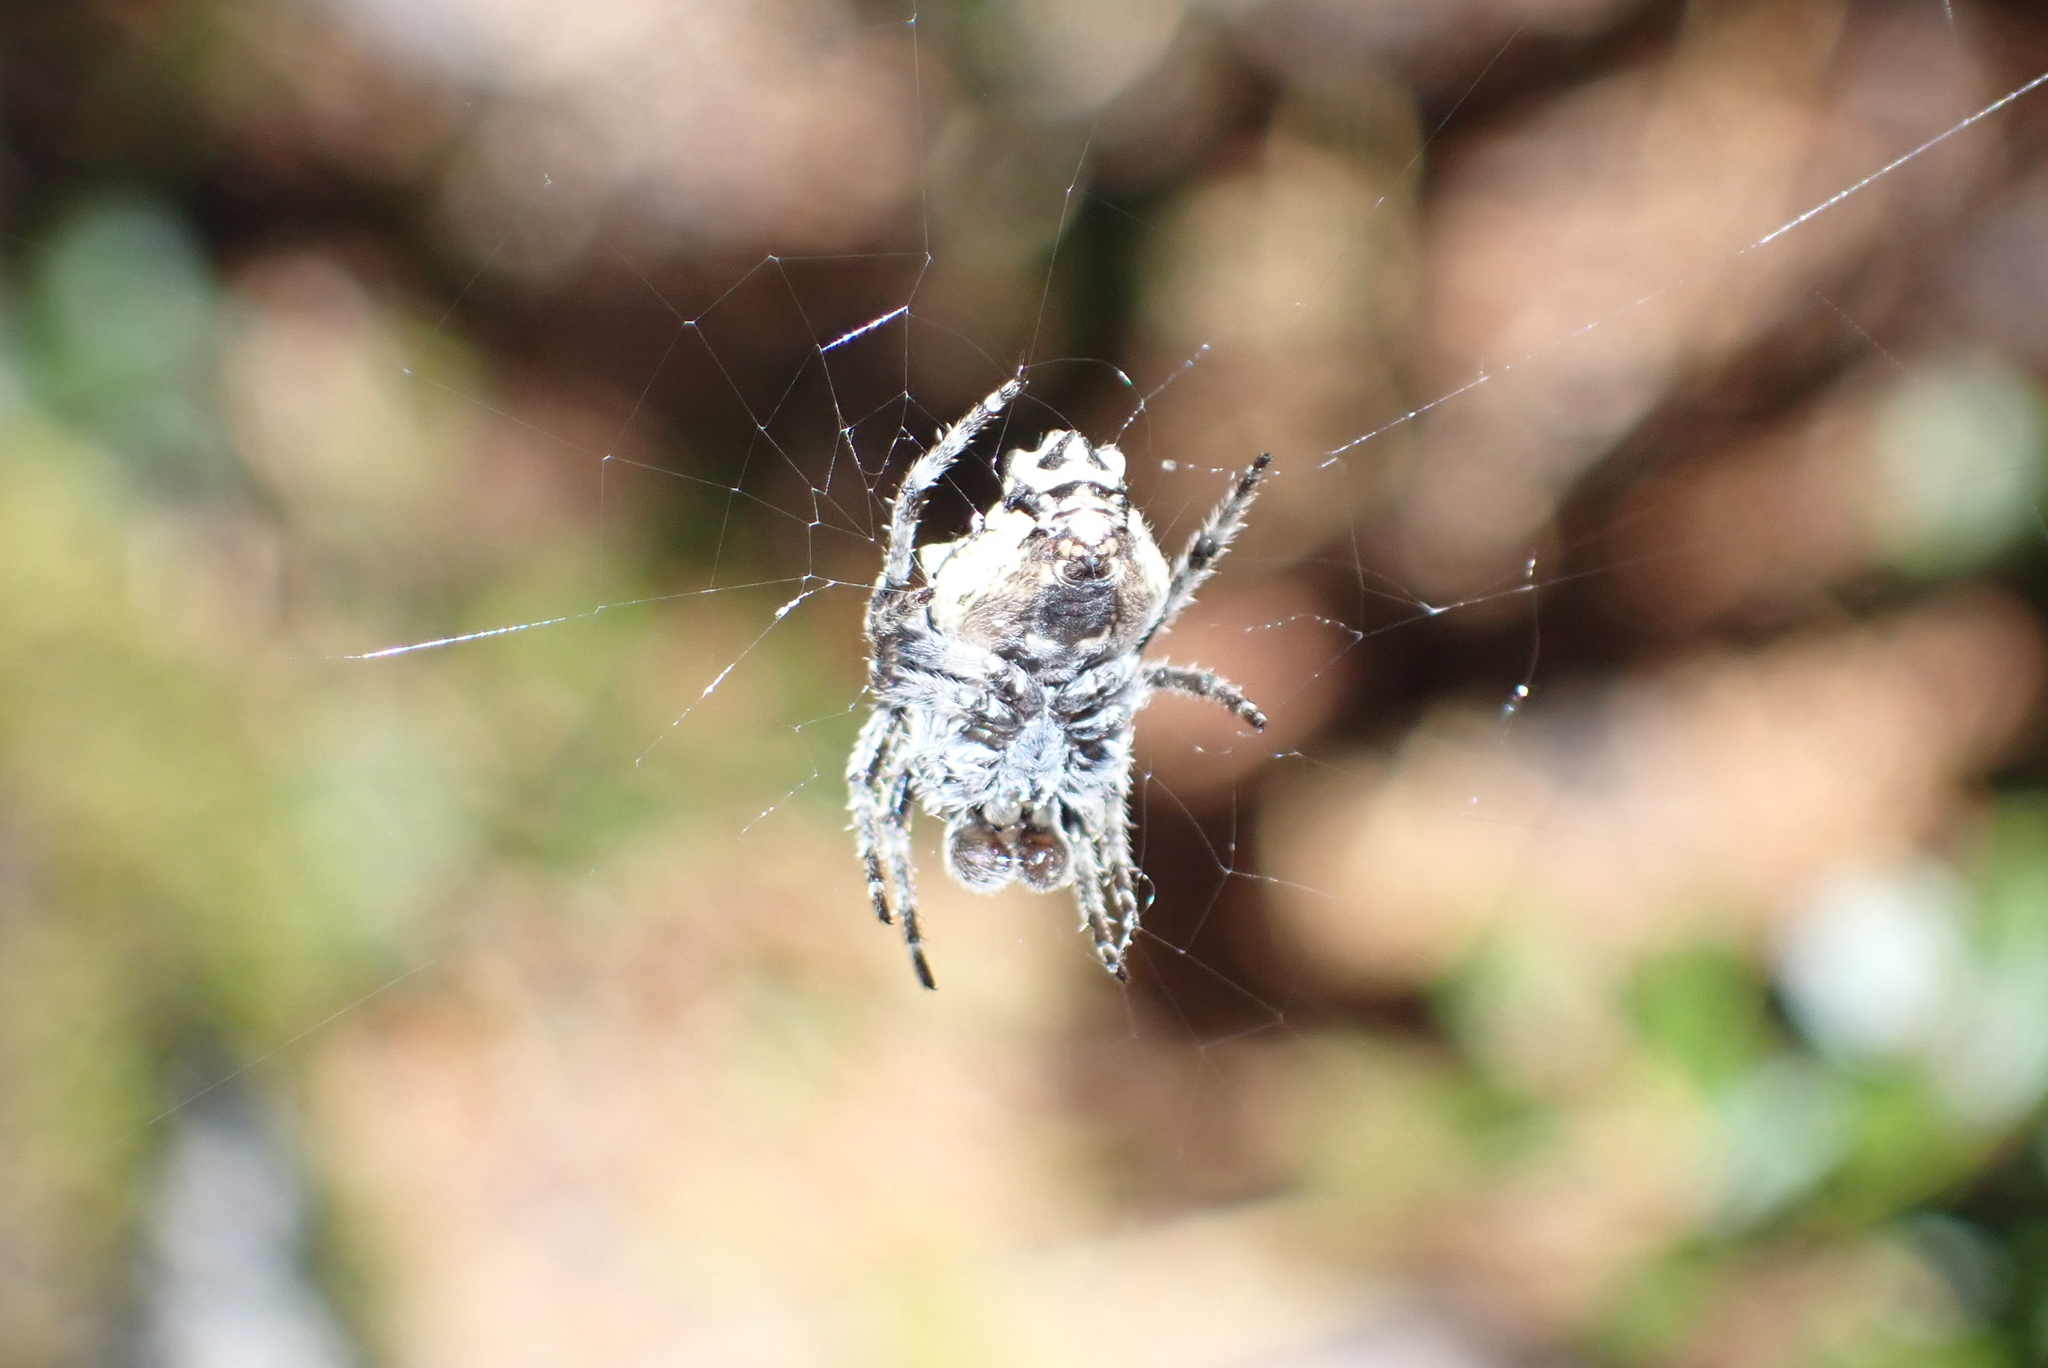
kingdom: Animalia
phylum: Arthropoda
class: Arachnida
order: Araneae
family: Araneidae
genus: Eriophora
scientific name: Eriophora pustulosa
